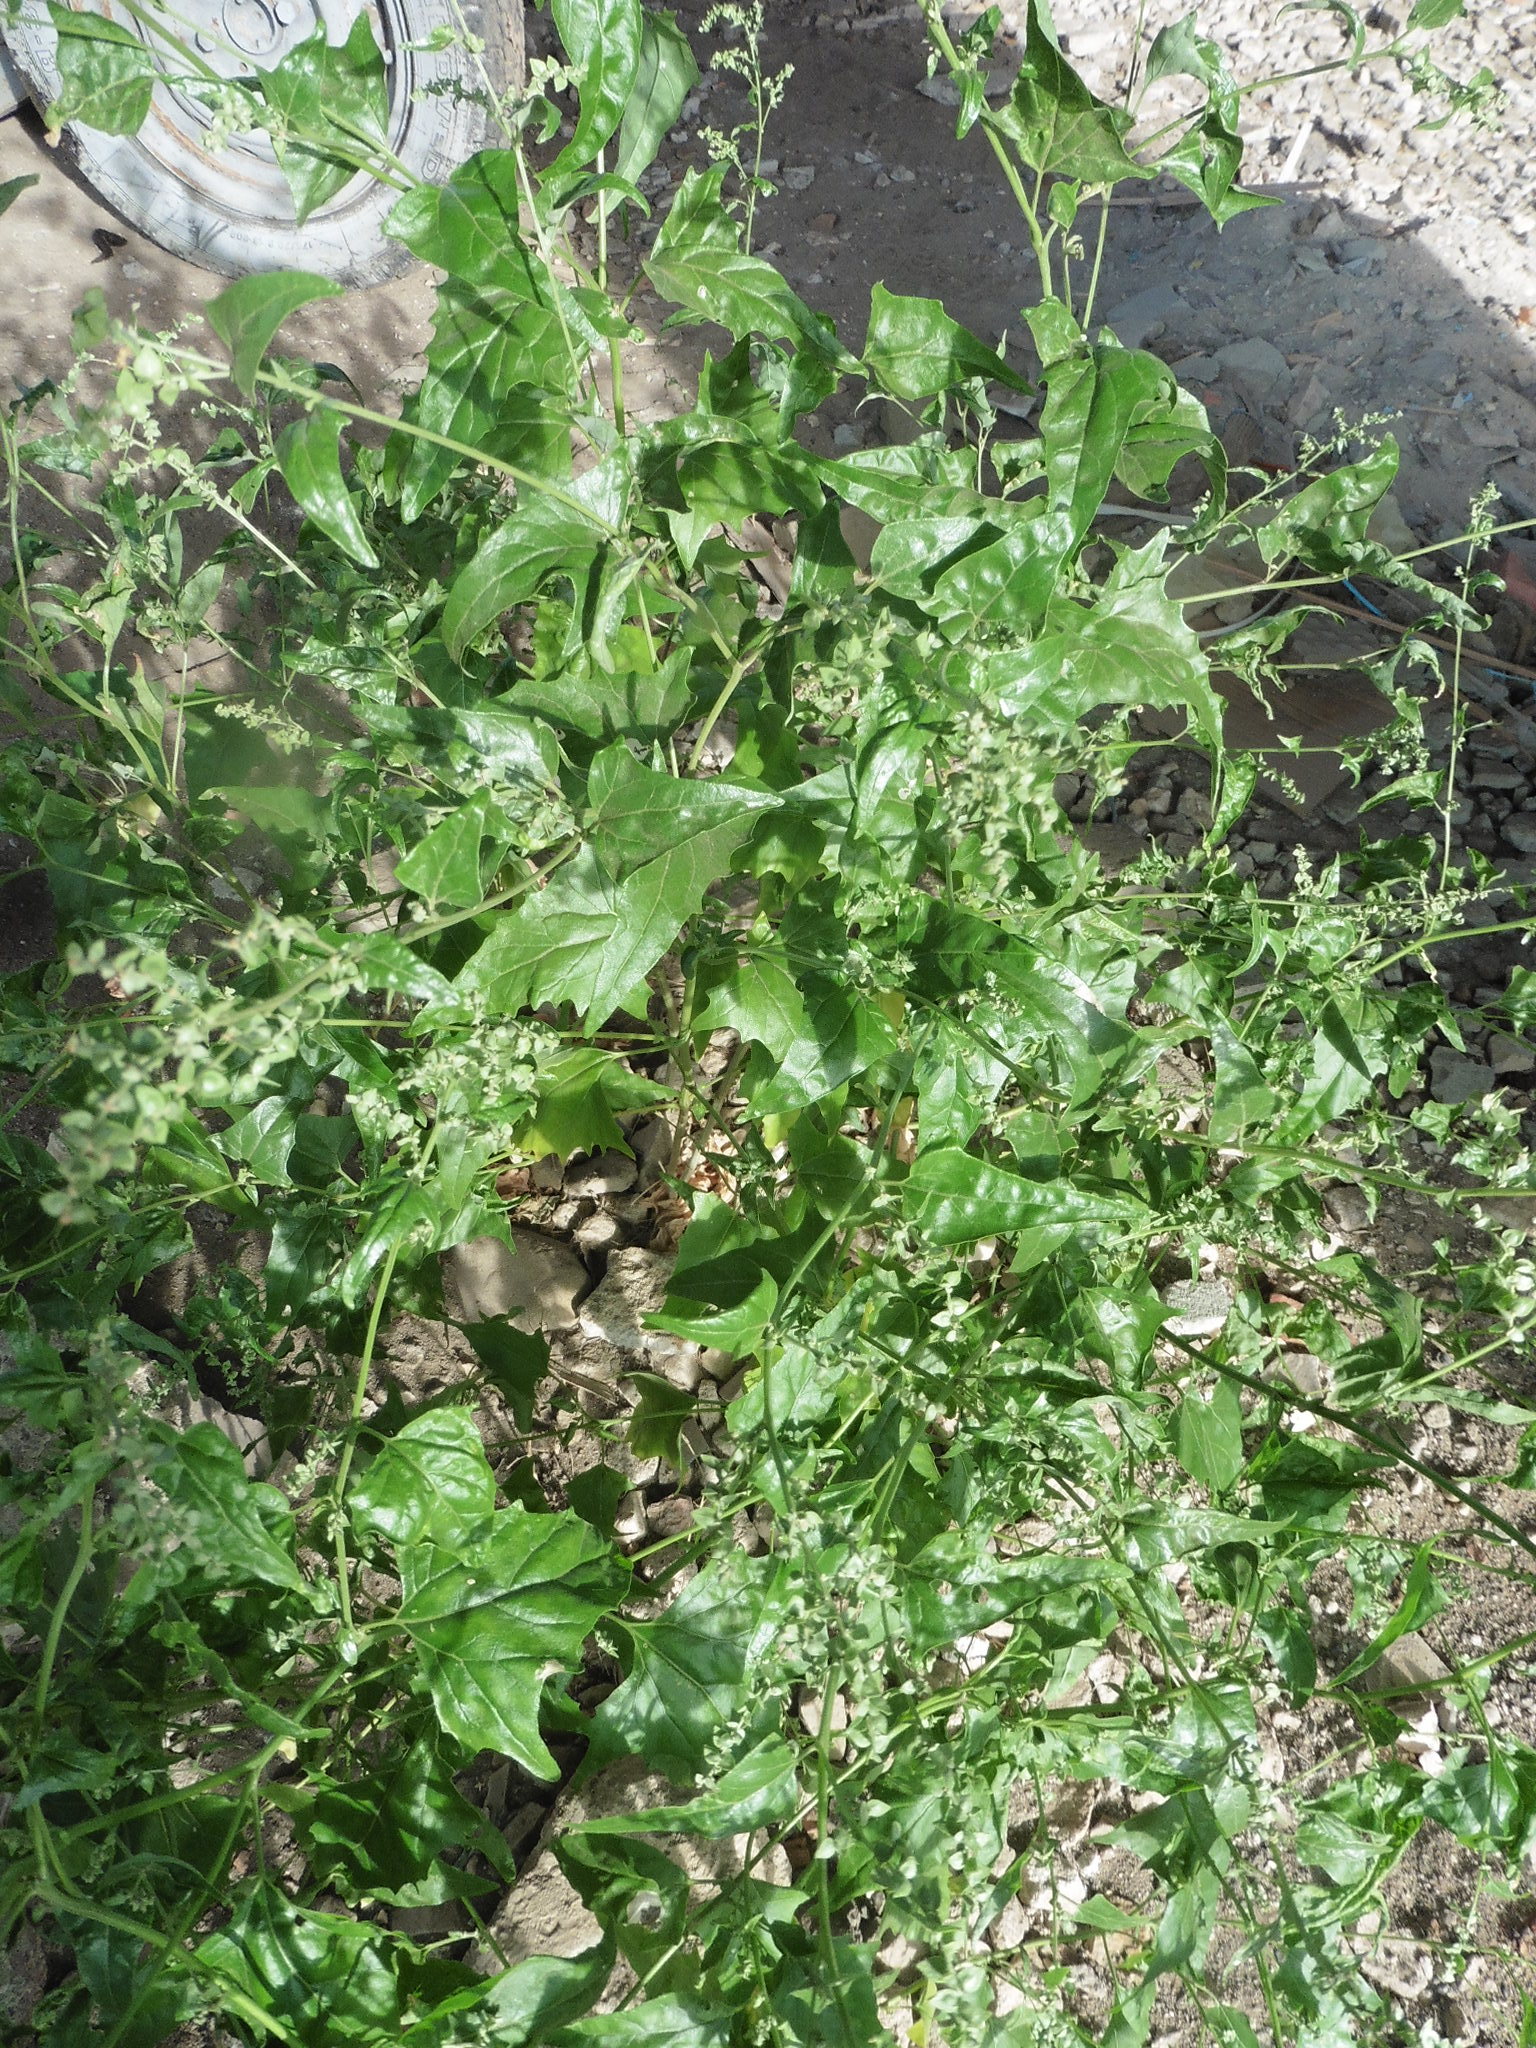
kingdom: Plantae
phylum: Tracheophyta
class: Magnoliopsida
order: Caryophyllales
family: Amaranthaceae
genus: Atriplex
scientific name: Atriplex sagittata
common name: Purple orache
